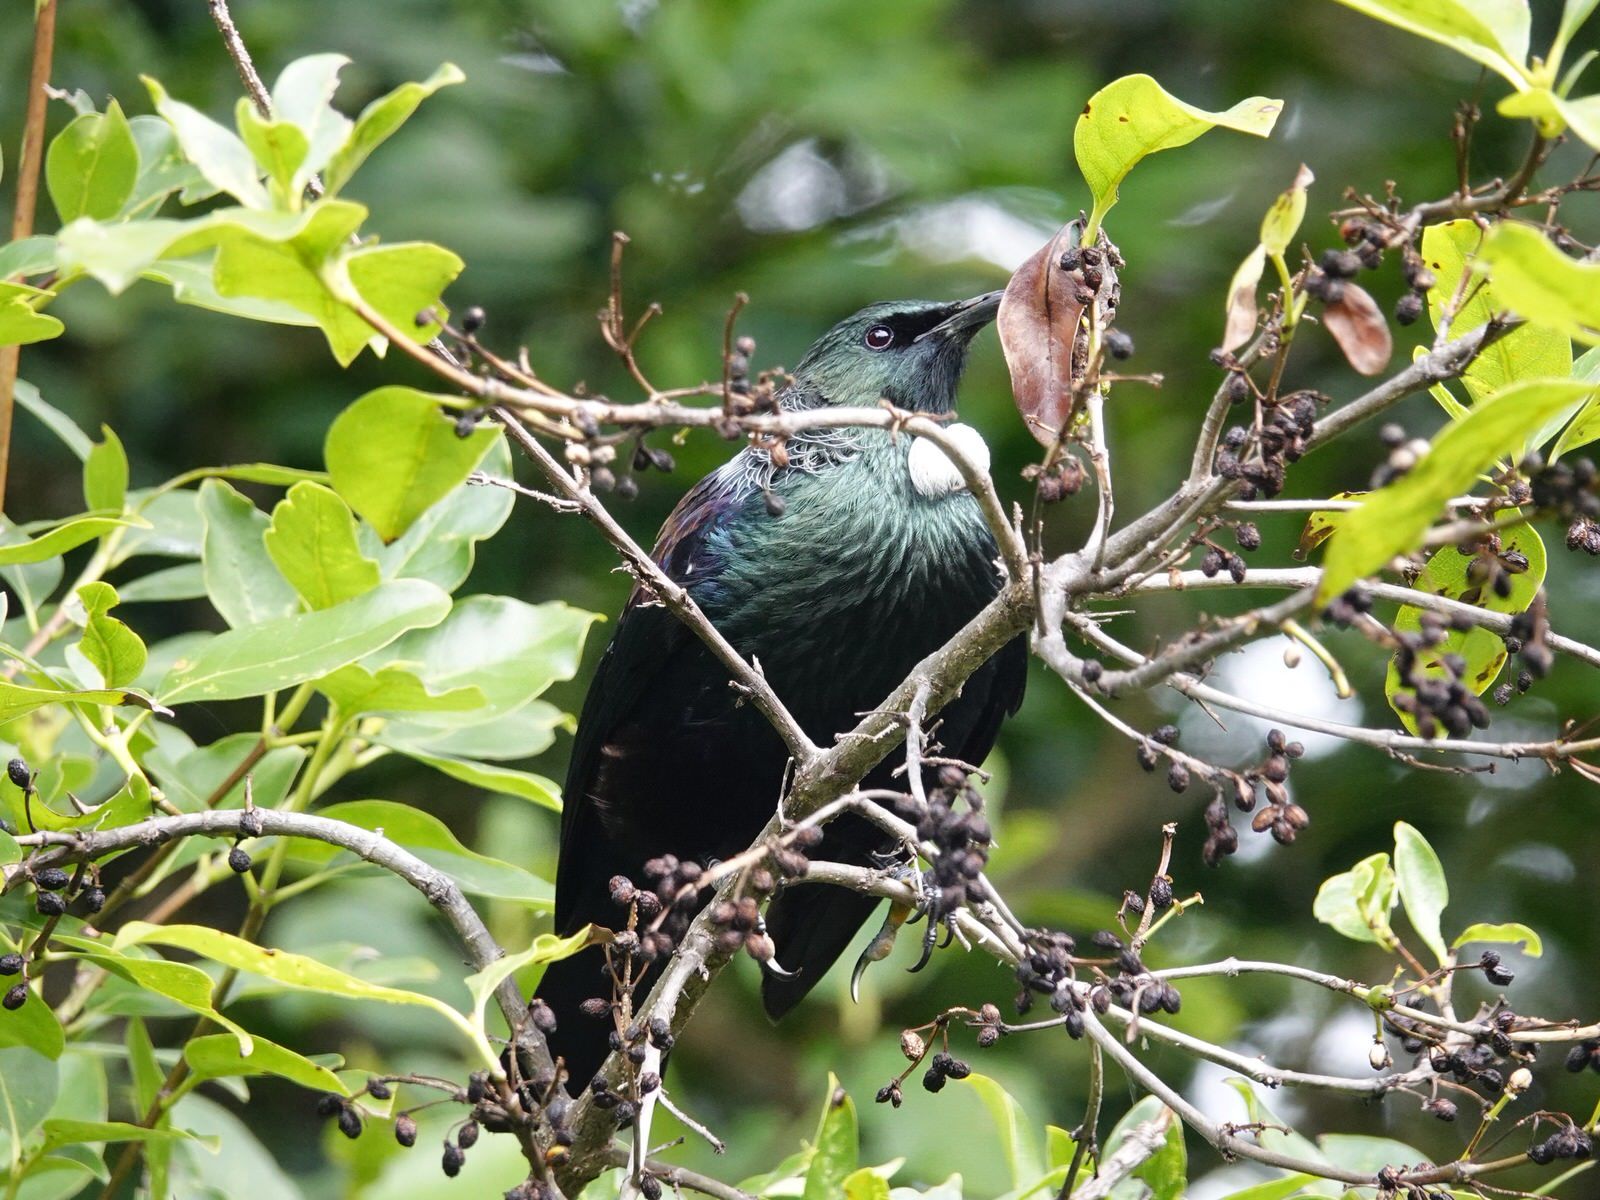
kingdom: Animalia
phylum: Chordata
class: Aves
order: Passeriformes
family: Meliphagidae
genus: Prosthemadera
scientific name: Prosthemadera novaeseelandiae
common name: Tui
